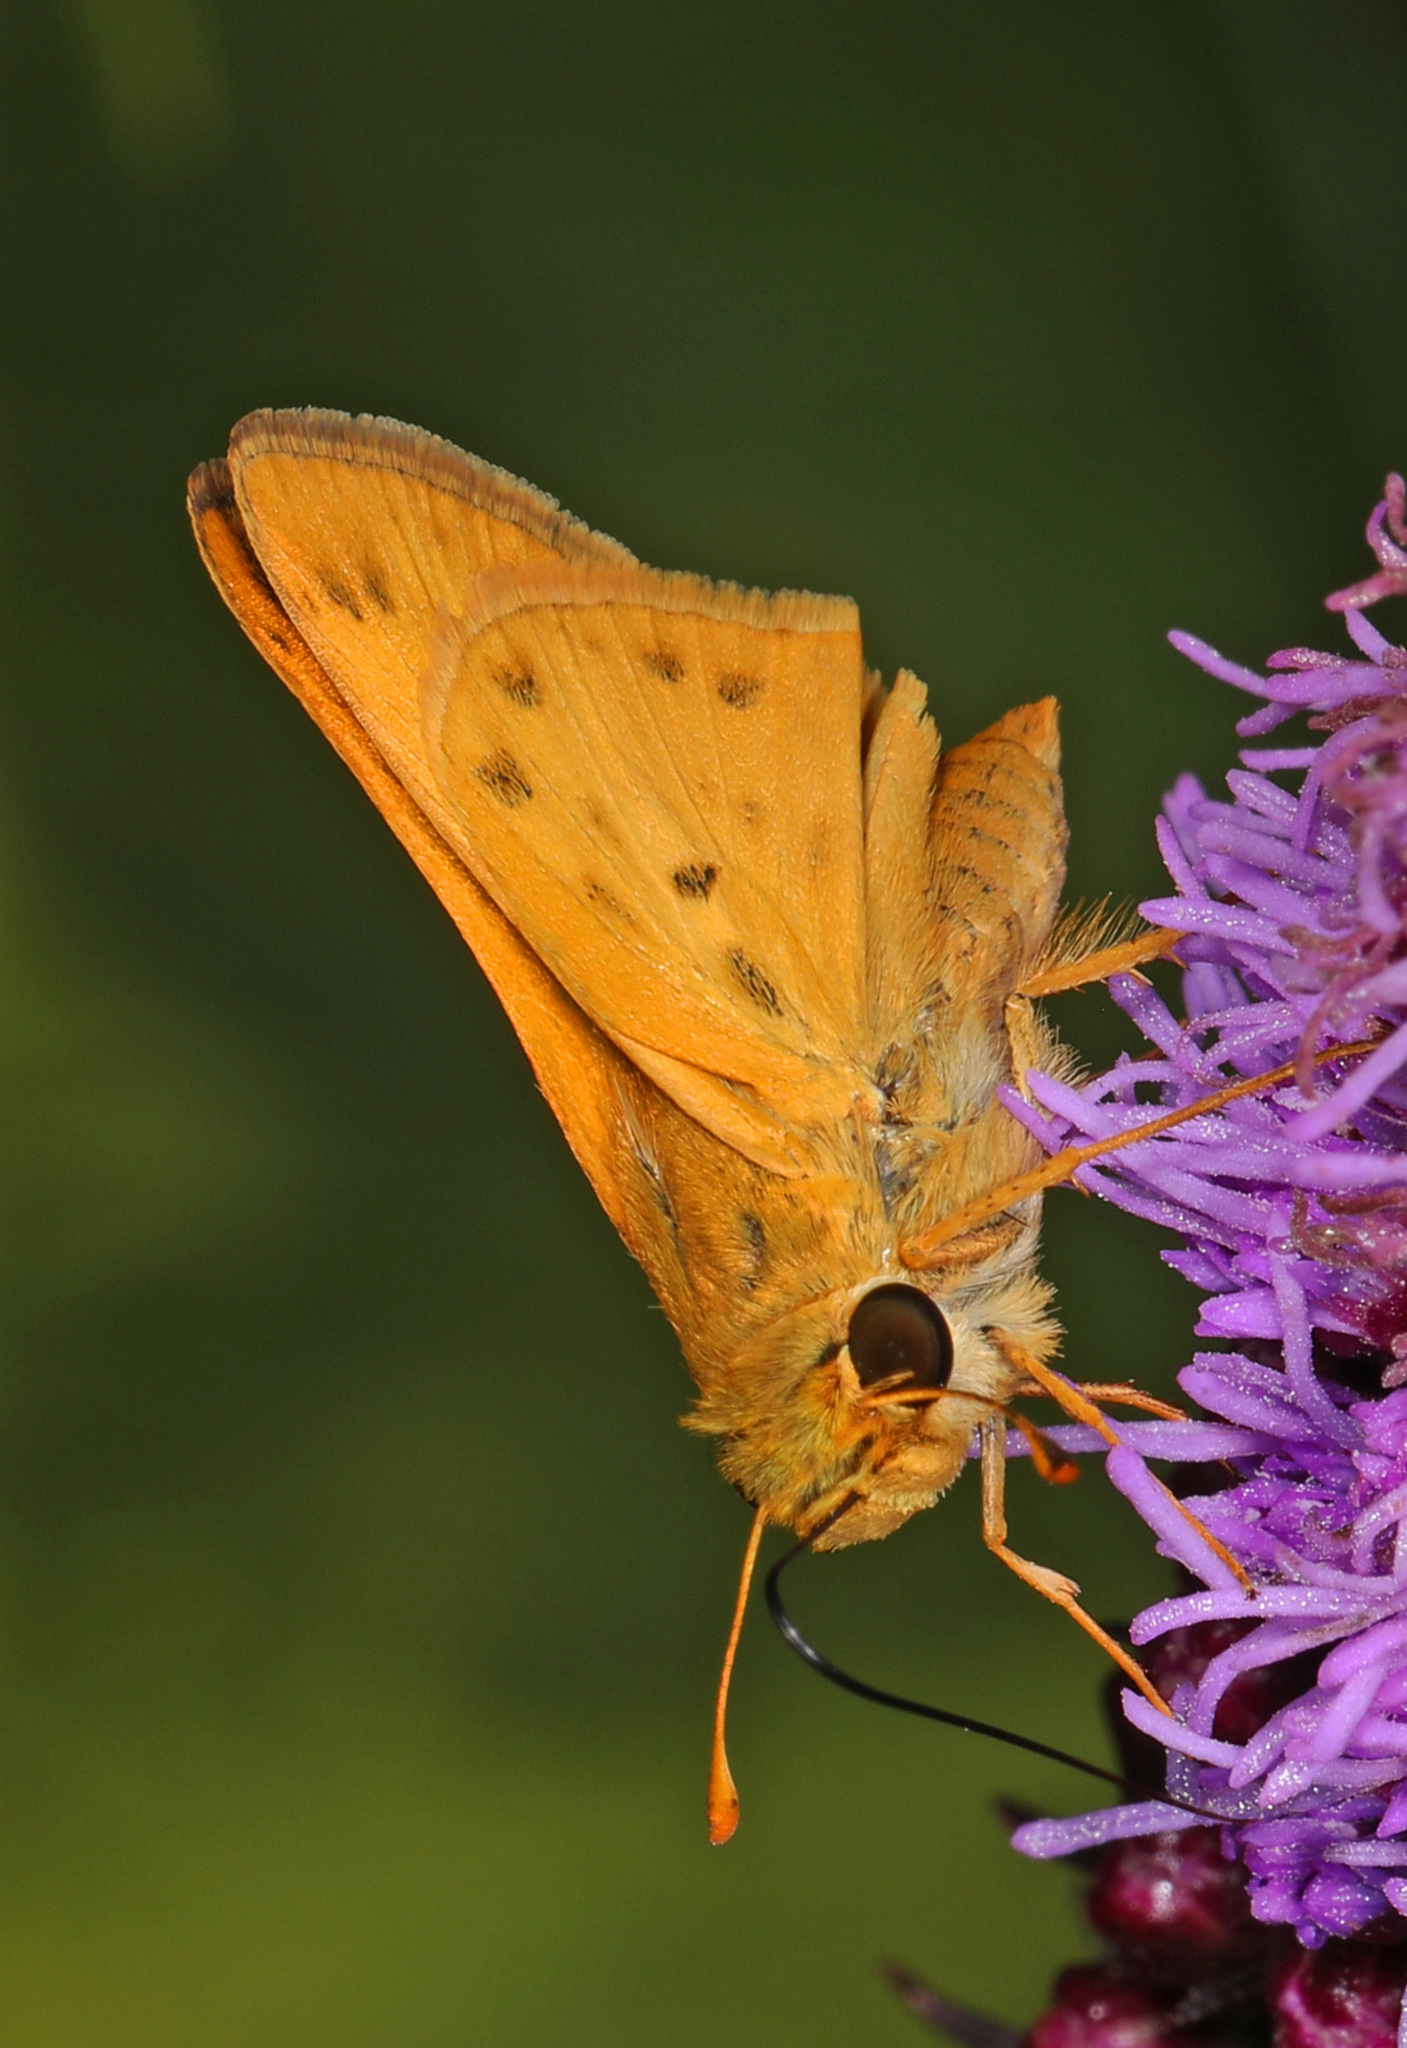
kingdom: Animalia
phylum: Arthropoda
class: Insecta
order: Lepidoptera
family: Hesperiidae
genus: Hylephila
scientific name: Hylephila phyleus
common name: Fiery skipper
